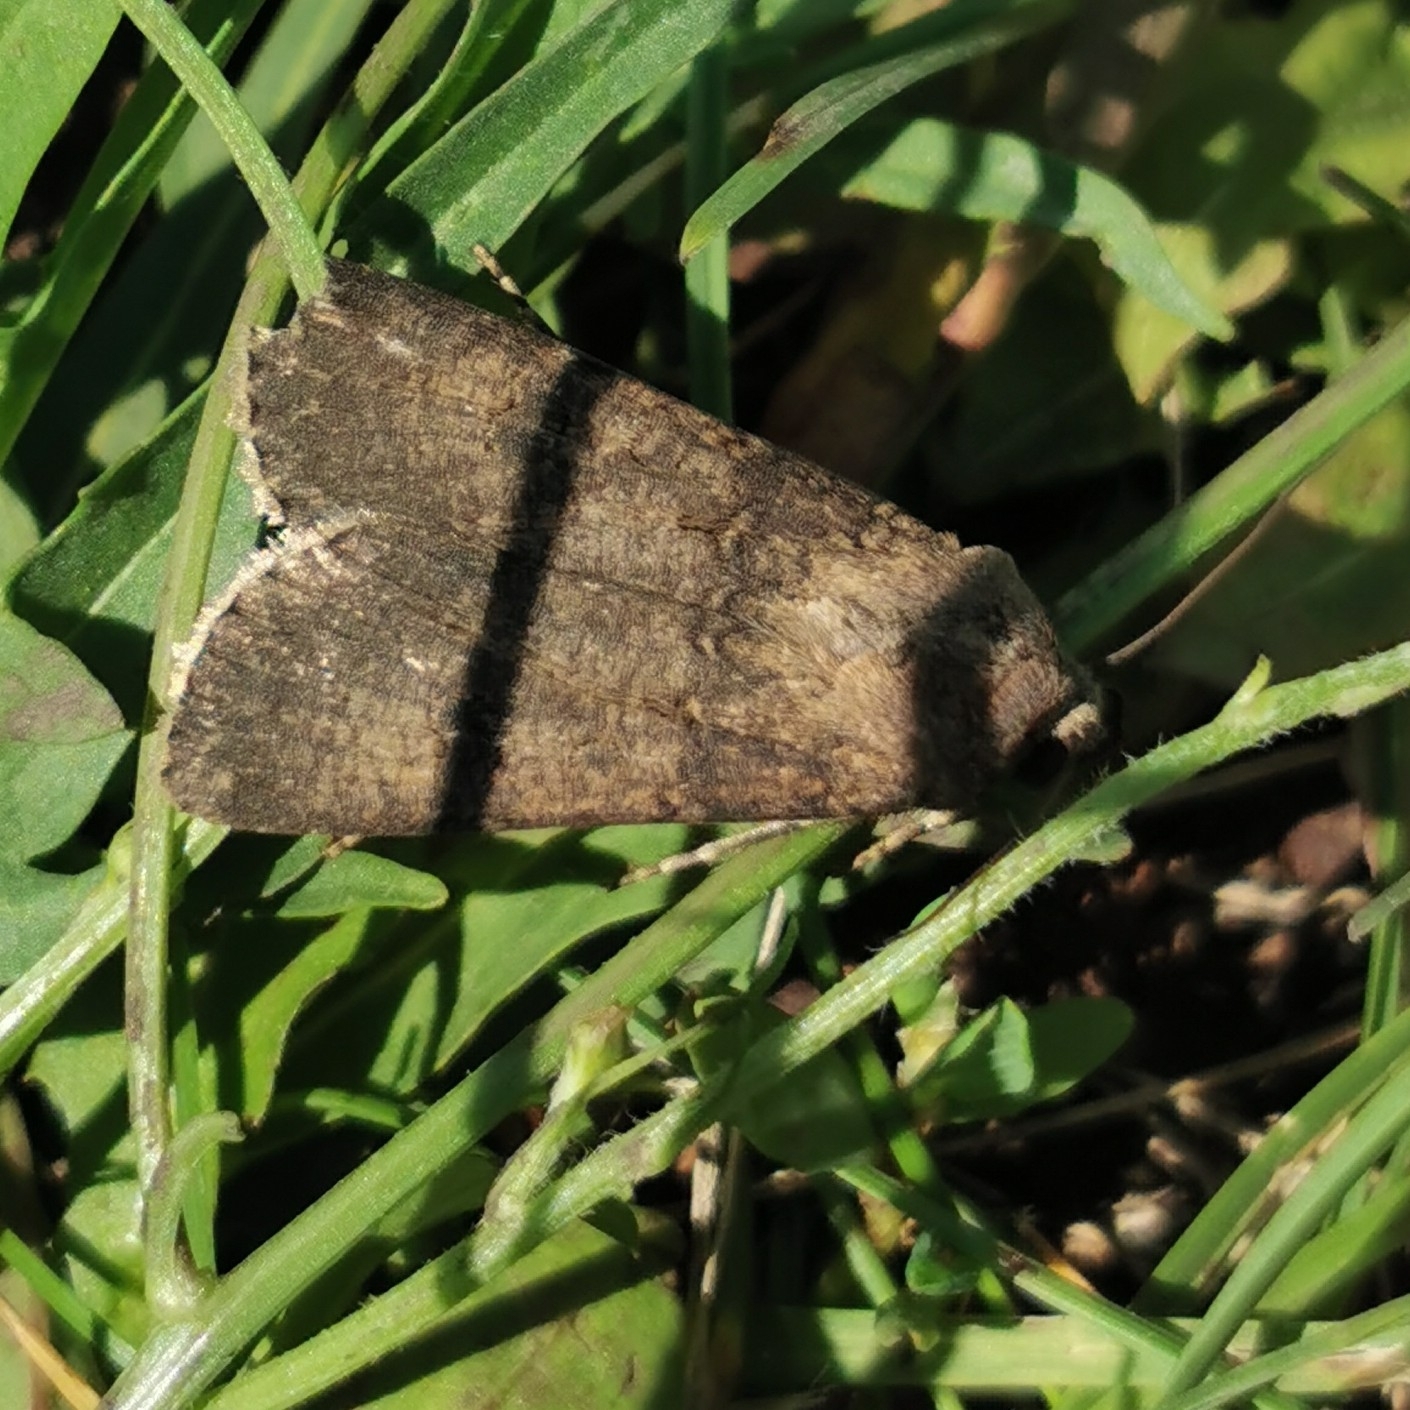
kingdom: Animalia
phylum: Arthropoda
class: Insecta
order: Lepidoptera
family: Noctuidae
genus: Agrotis
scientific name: Agrotis segetum
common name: Turnip moth
